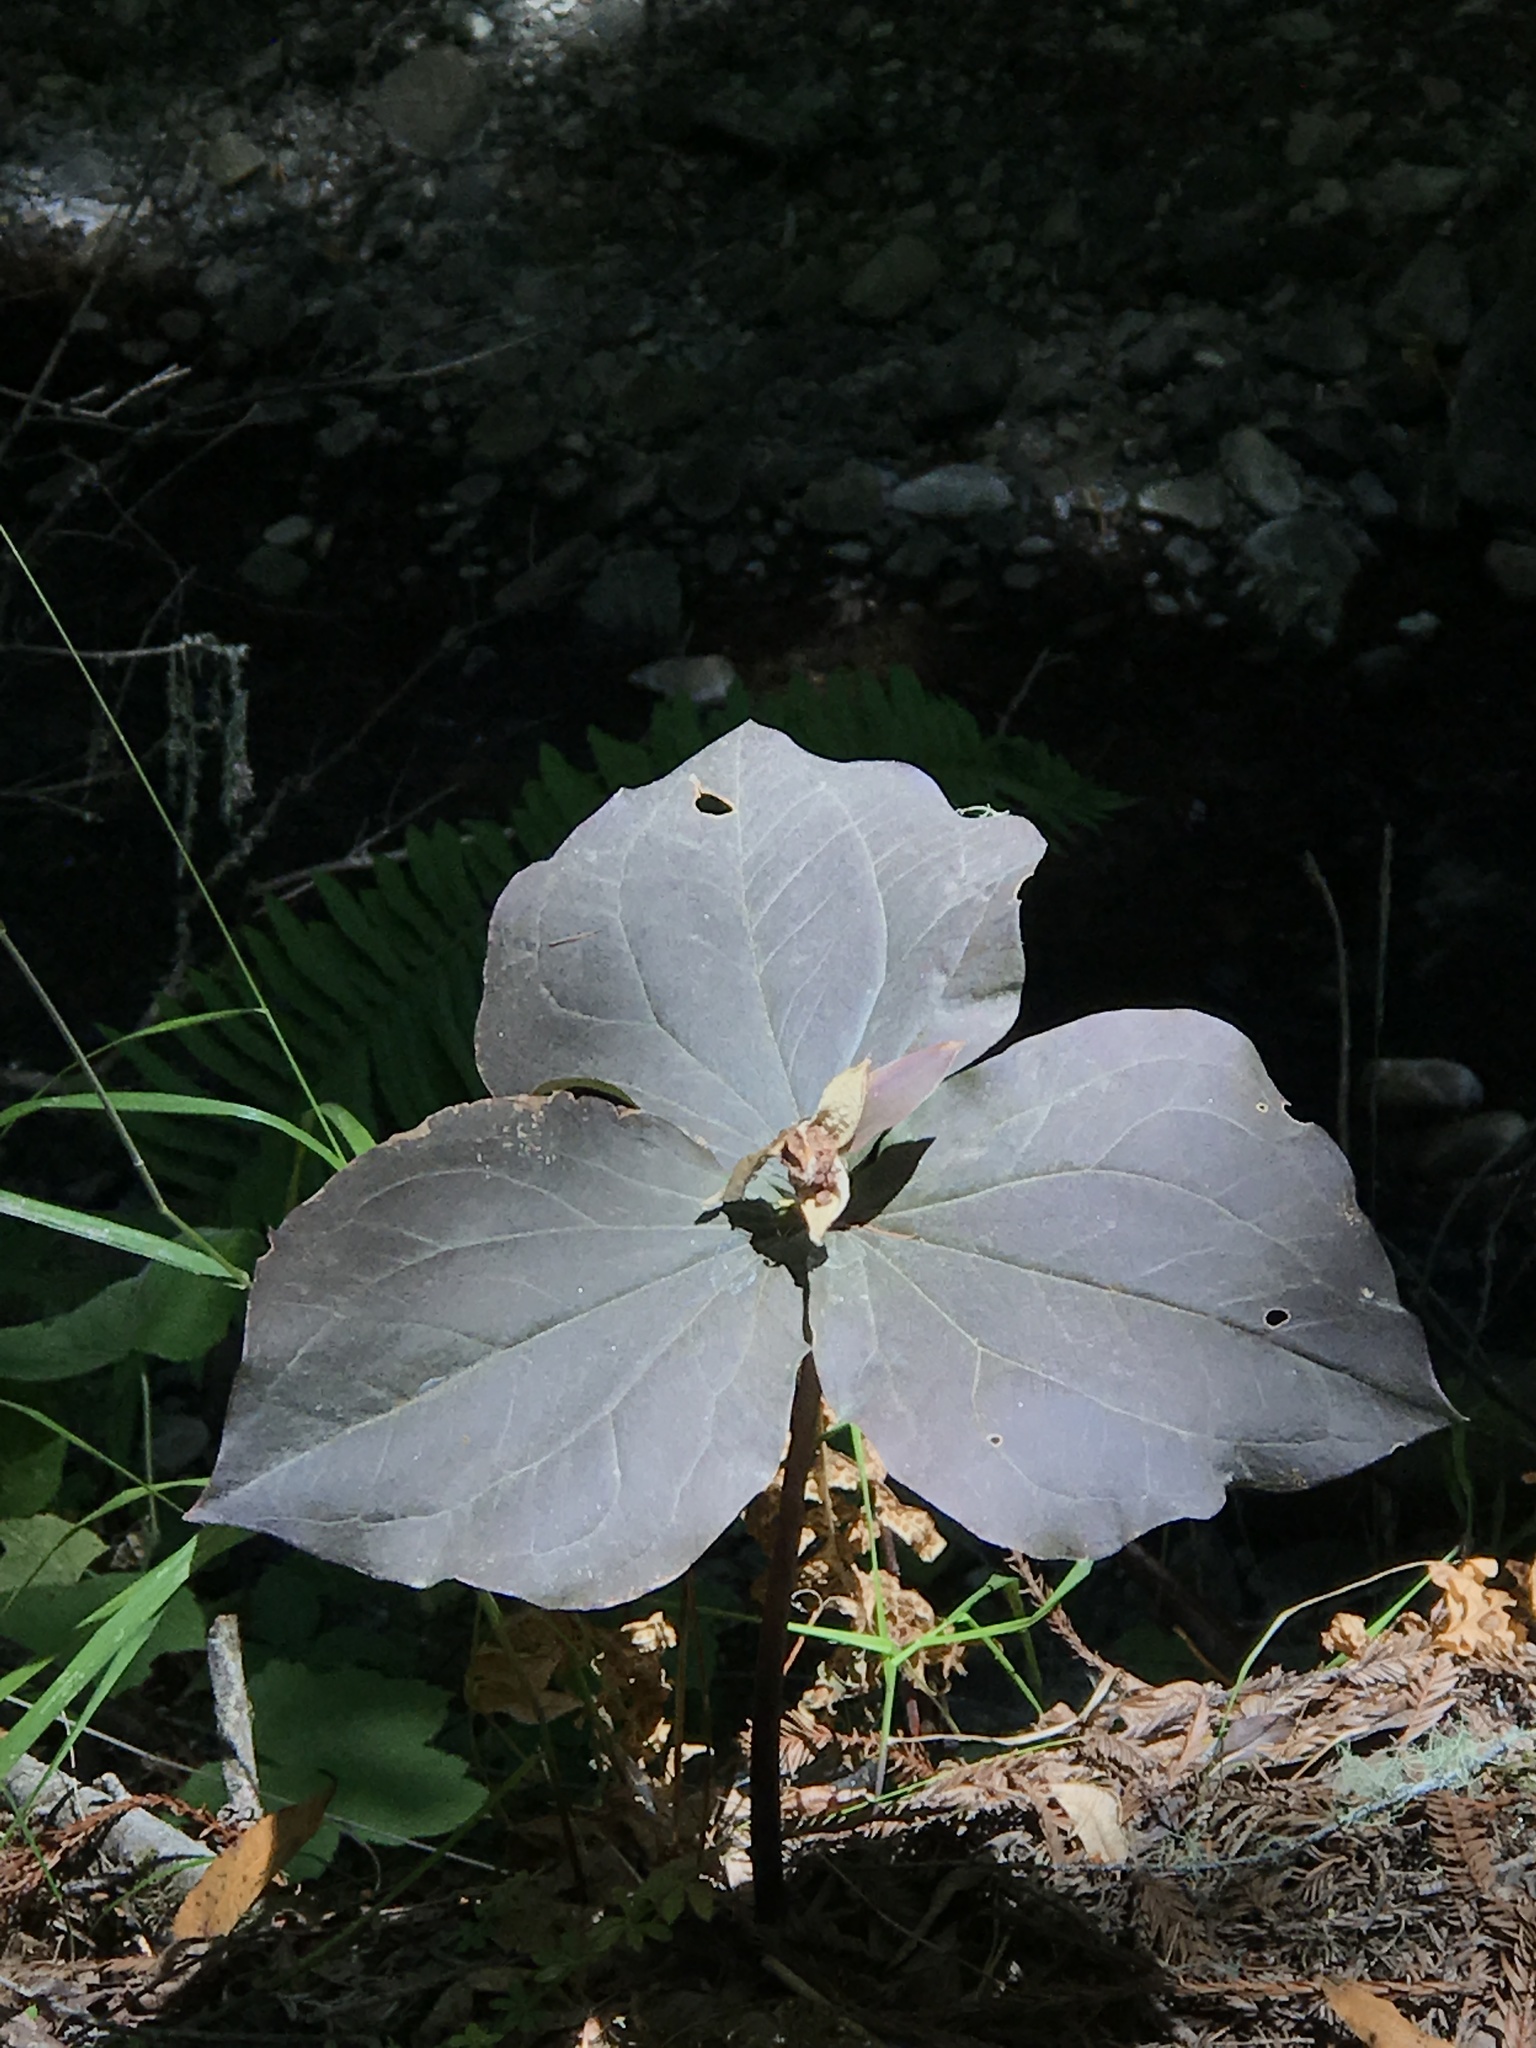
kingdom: Plantae
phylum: Tracheophyta
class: Liliopsida
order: Liliales
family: Melanthiaceae
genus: Trillium
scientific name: Trillium ovatum
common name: Pacific trillium
